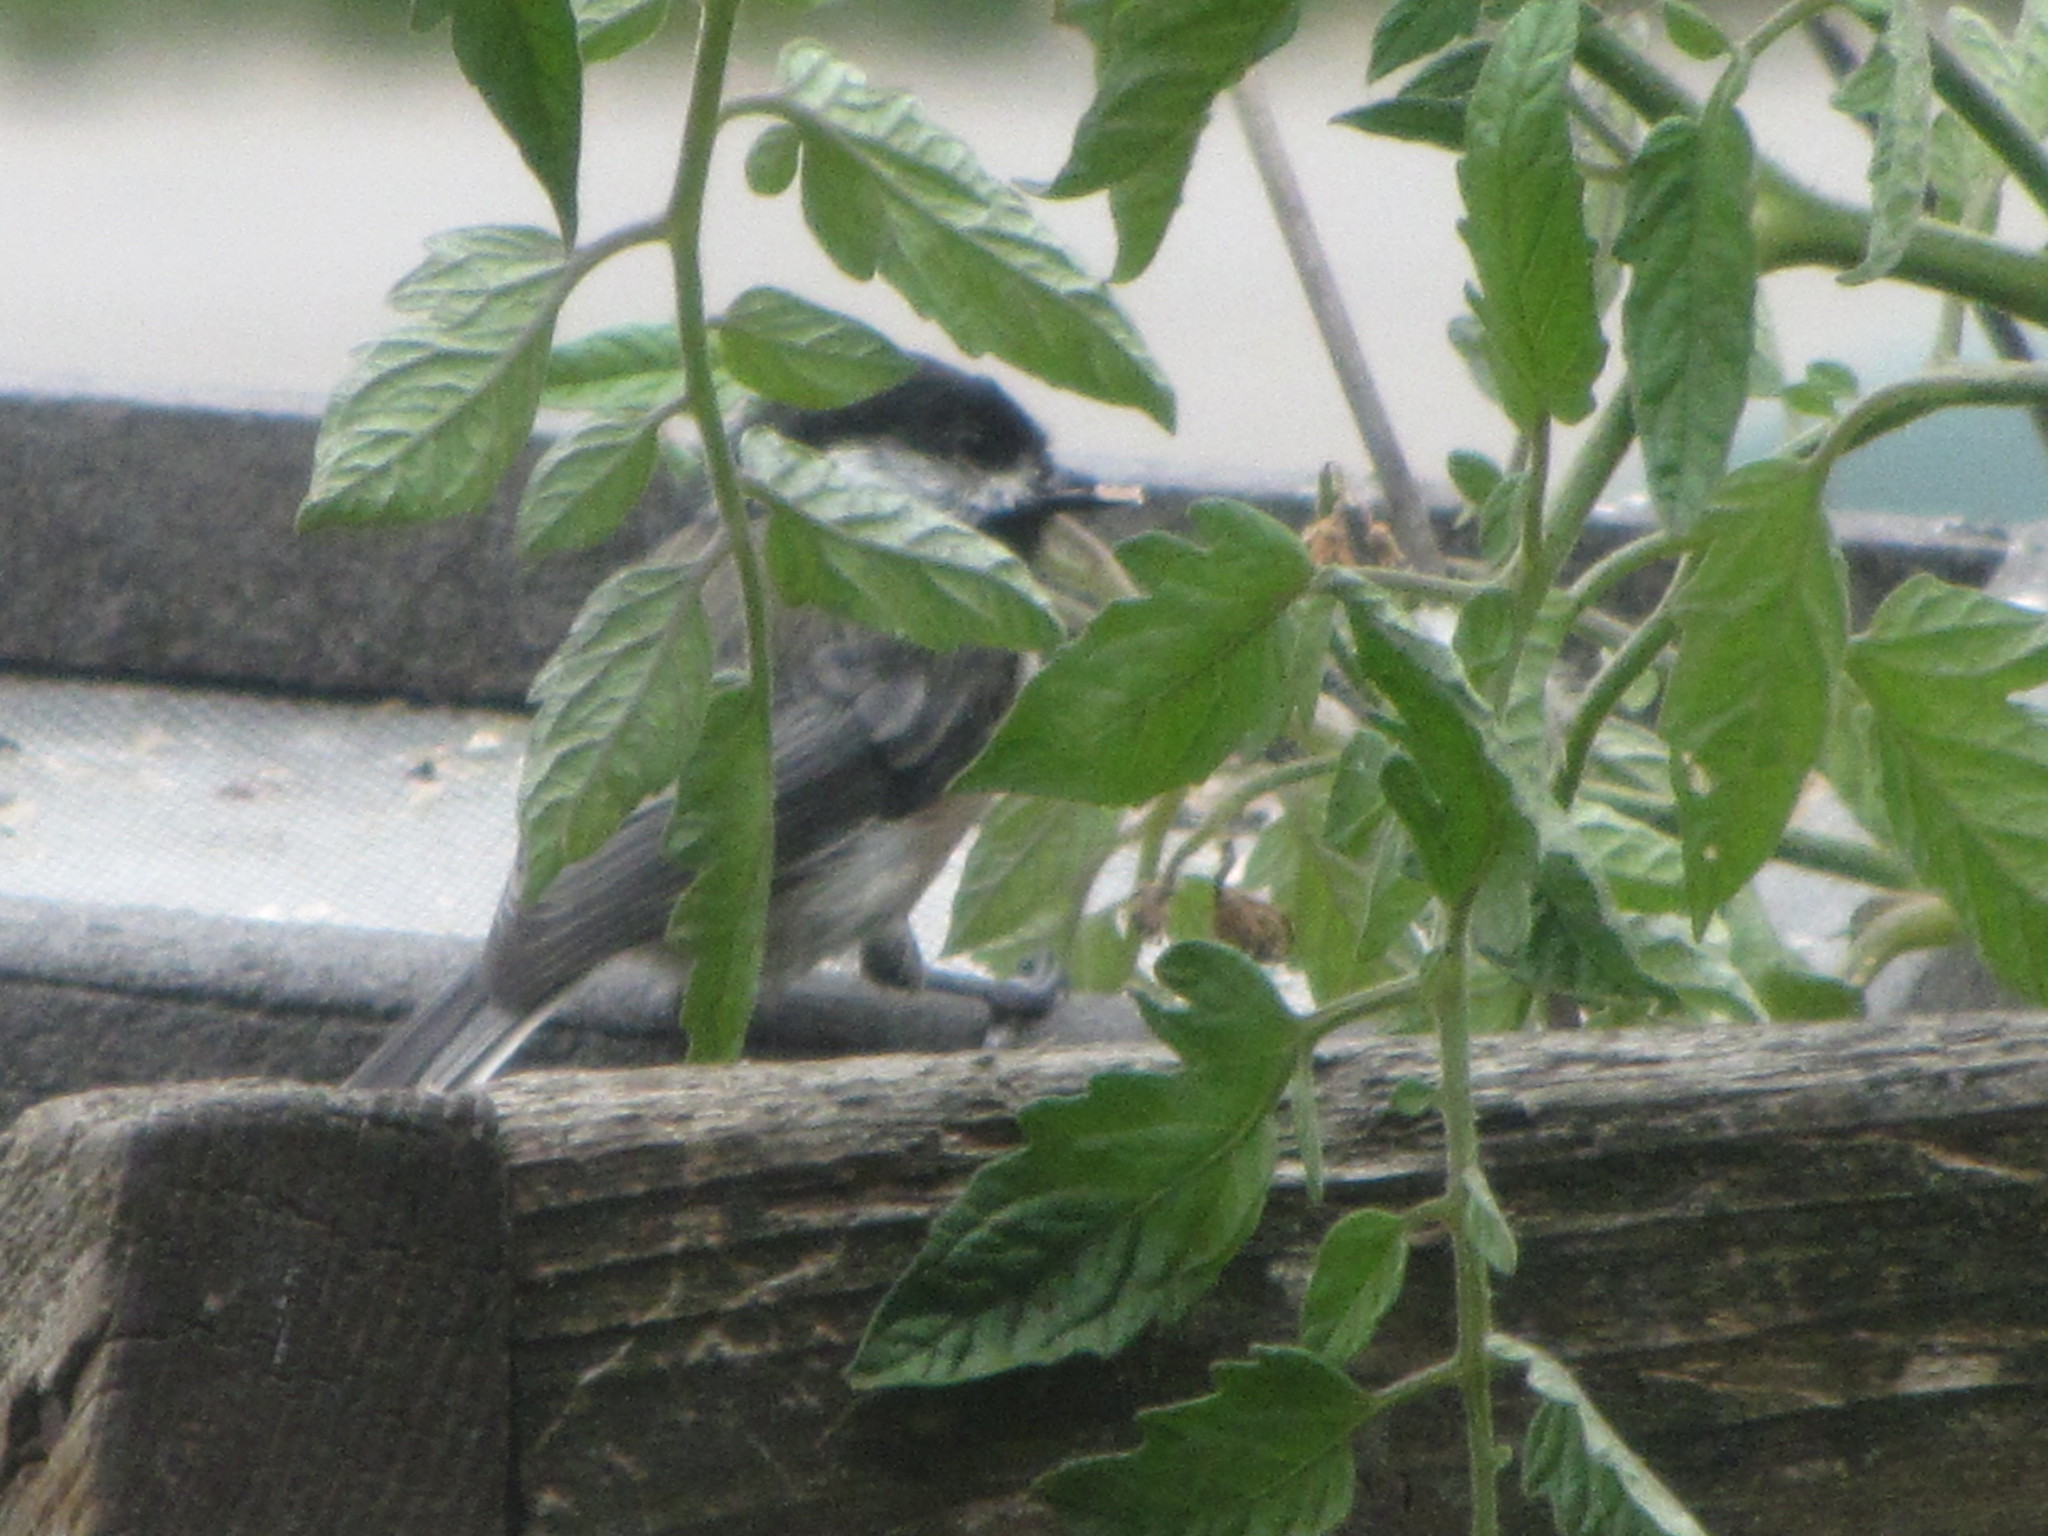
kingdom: Animalia
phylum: Chordata
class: Aves
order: Passeriformes
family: Paridae
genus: Poecile
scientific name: Poecile atricapillus
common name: Black-capped chickadee
